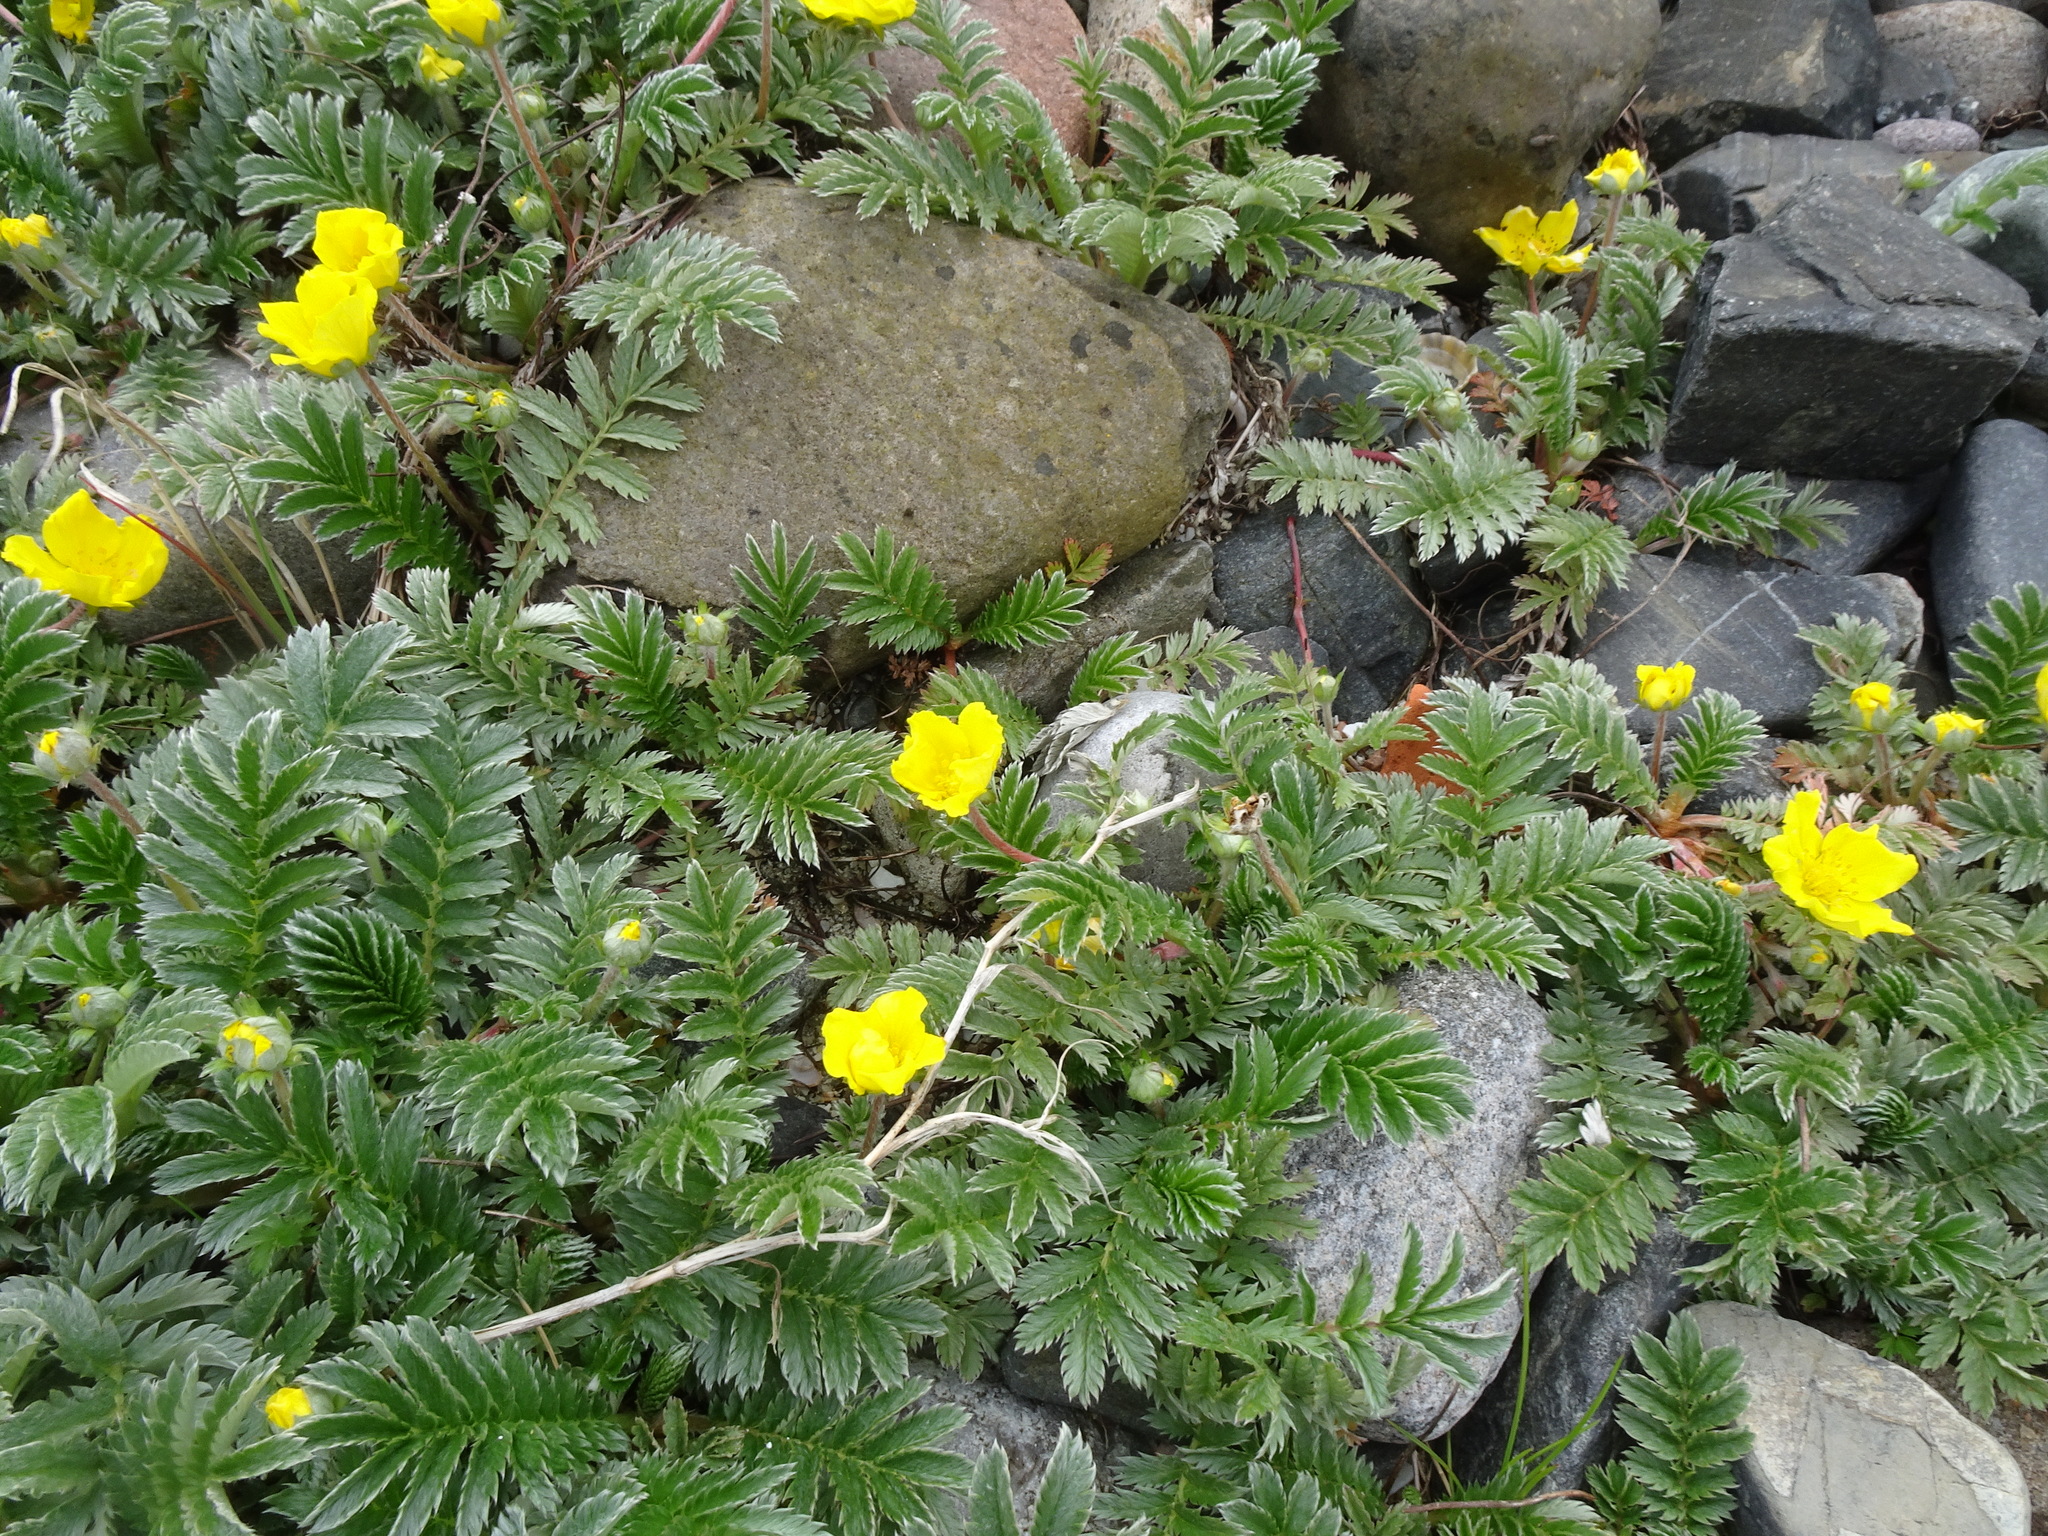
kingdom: Plantae
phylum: Tracheophyta
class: Magnoliopsida
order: Rosales
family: Rosaceae
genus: Argentina
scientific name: Argentina anserina
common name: Common silverweed
